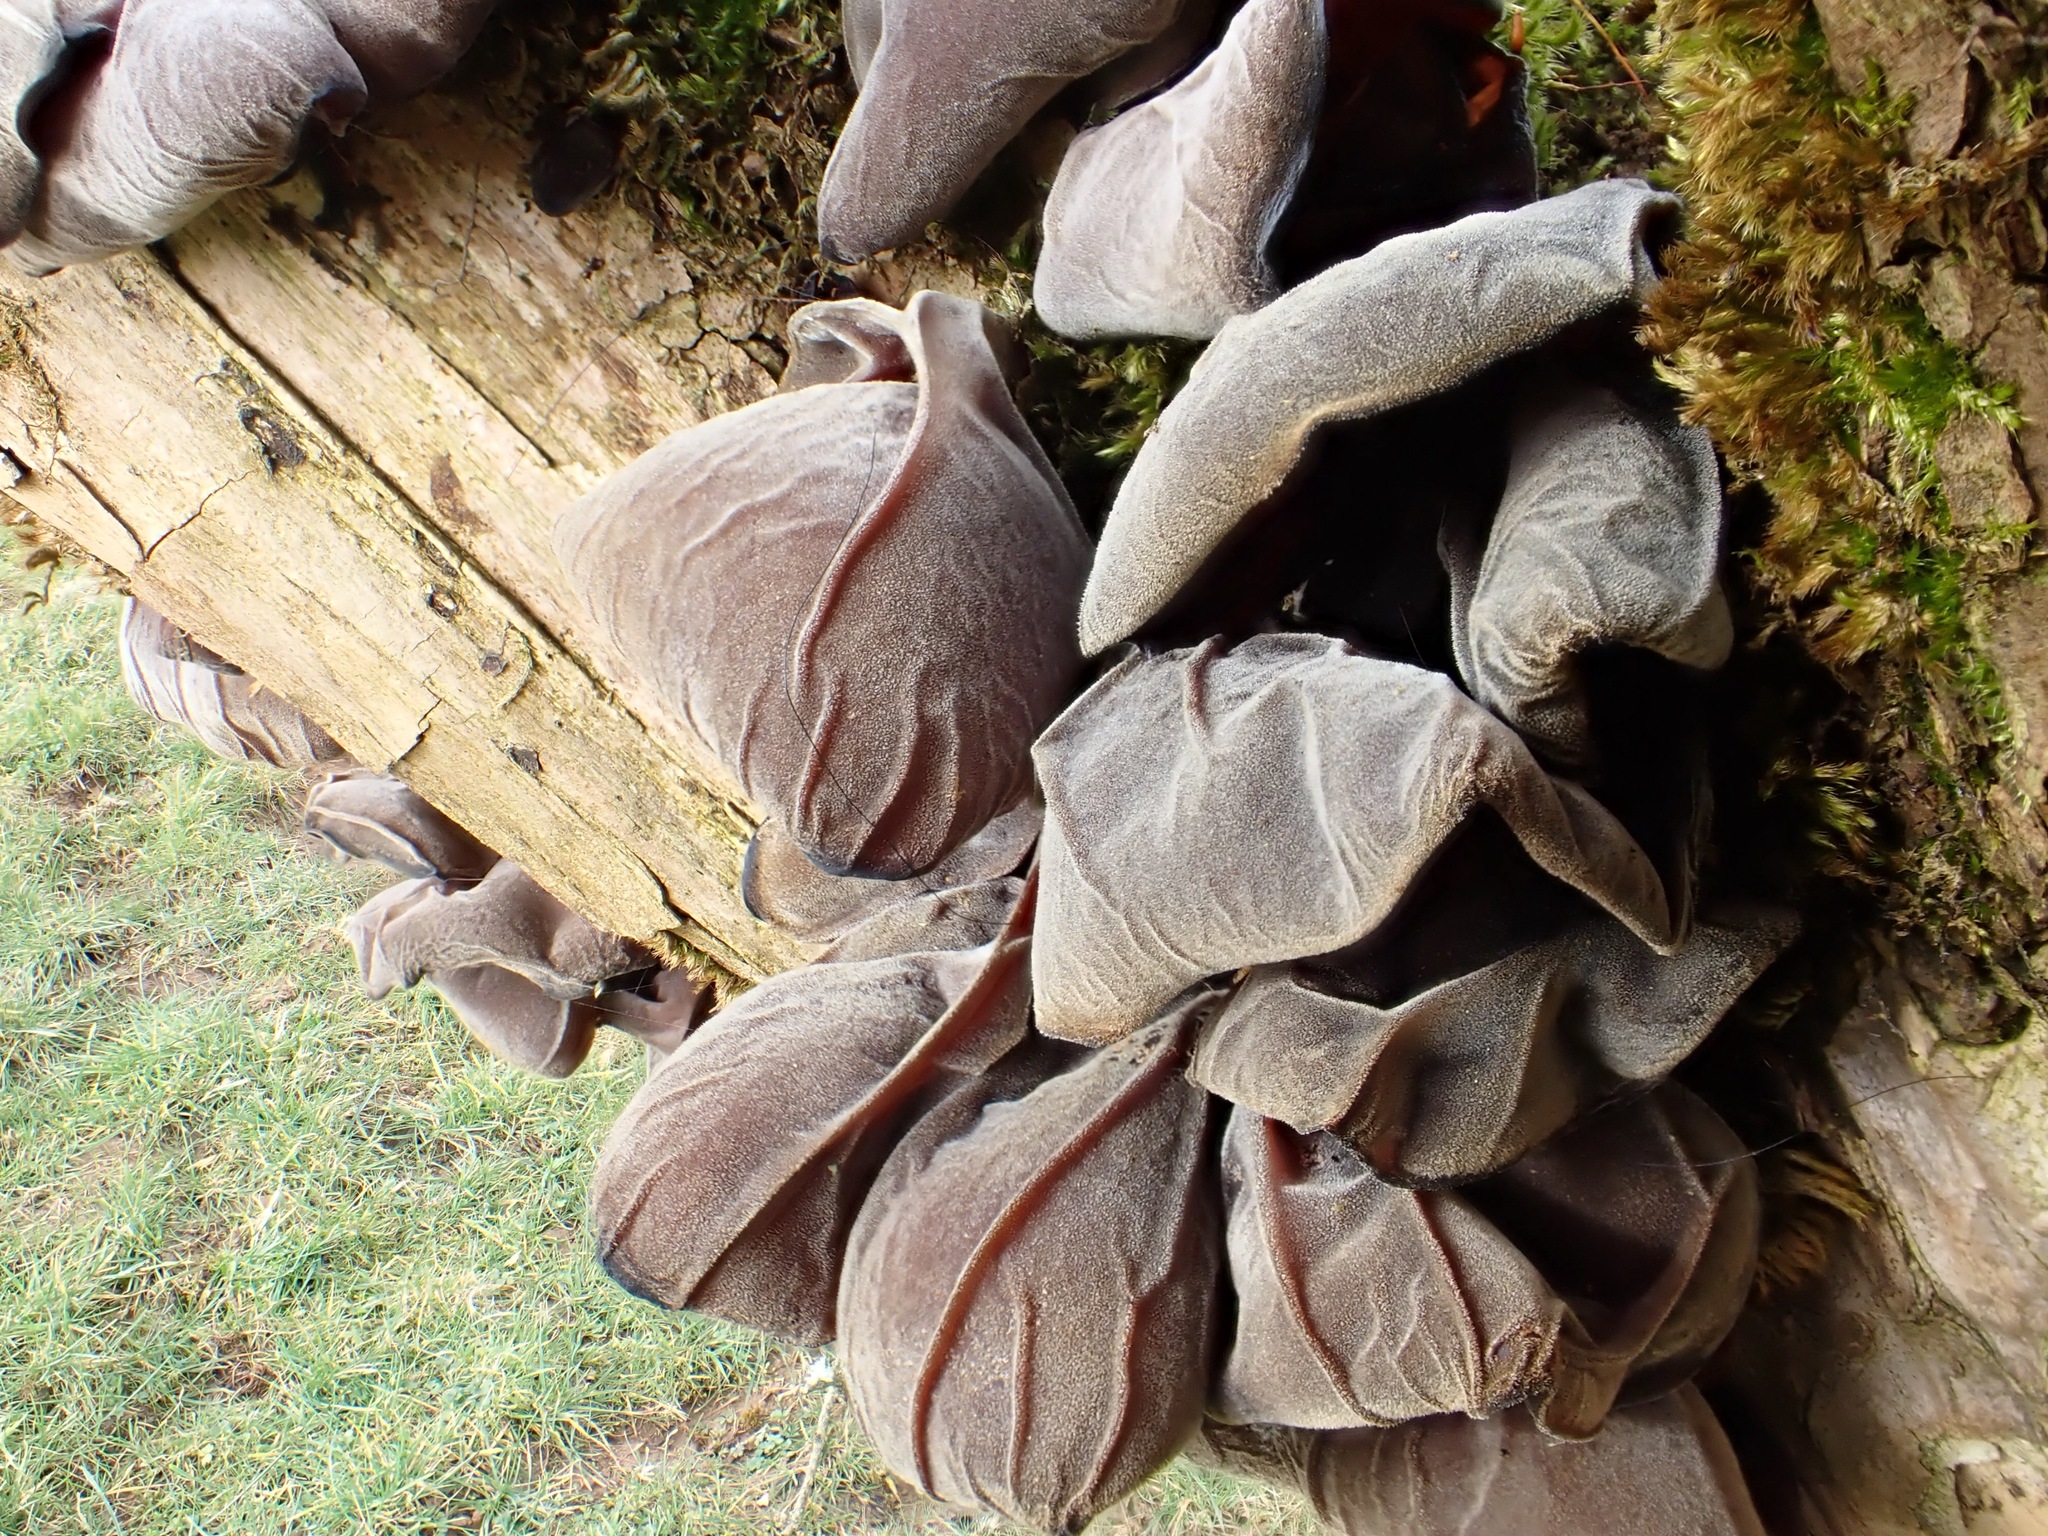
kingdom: Fungi
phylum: Basidiomycota
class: Agaricomycetes
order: Auriculariales
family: Auriculariaceae
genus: Auricularia
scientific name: Auricularia auricula-judae
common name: Jelly ear
